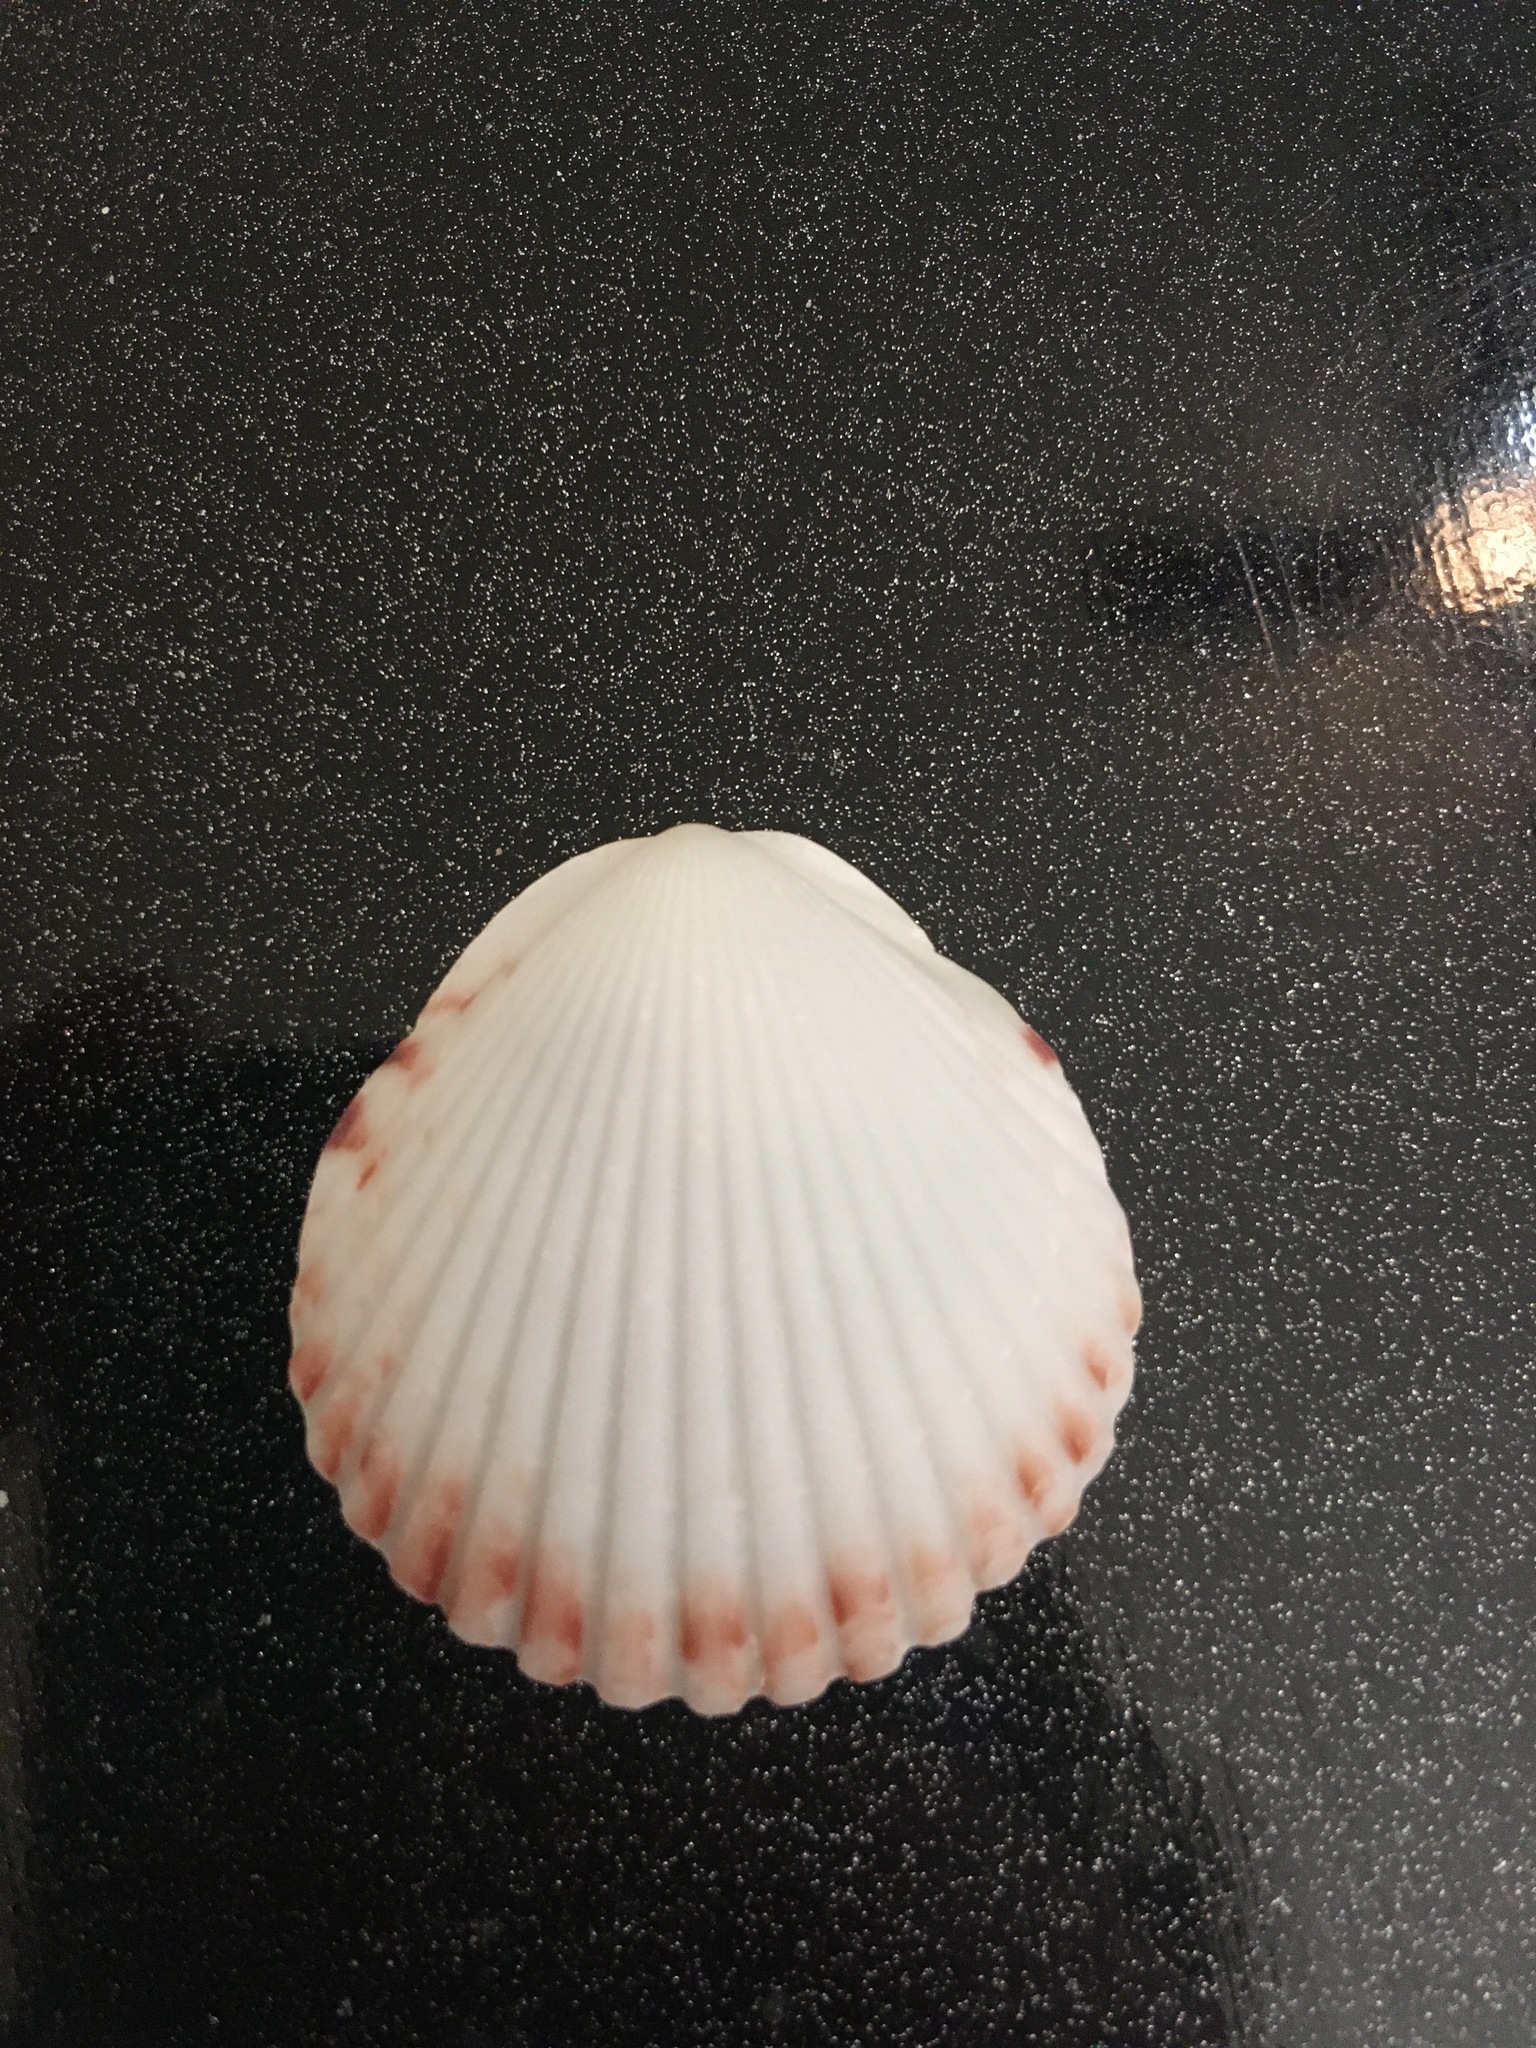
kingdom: Animalia
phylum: Mollusca
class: Bivalvia
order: Pectinida
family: Pectinidae
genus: Argopecten
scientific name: Argopecten gibbus
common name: Atlantic calico scallop
